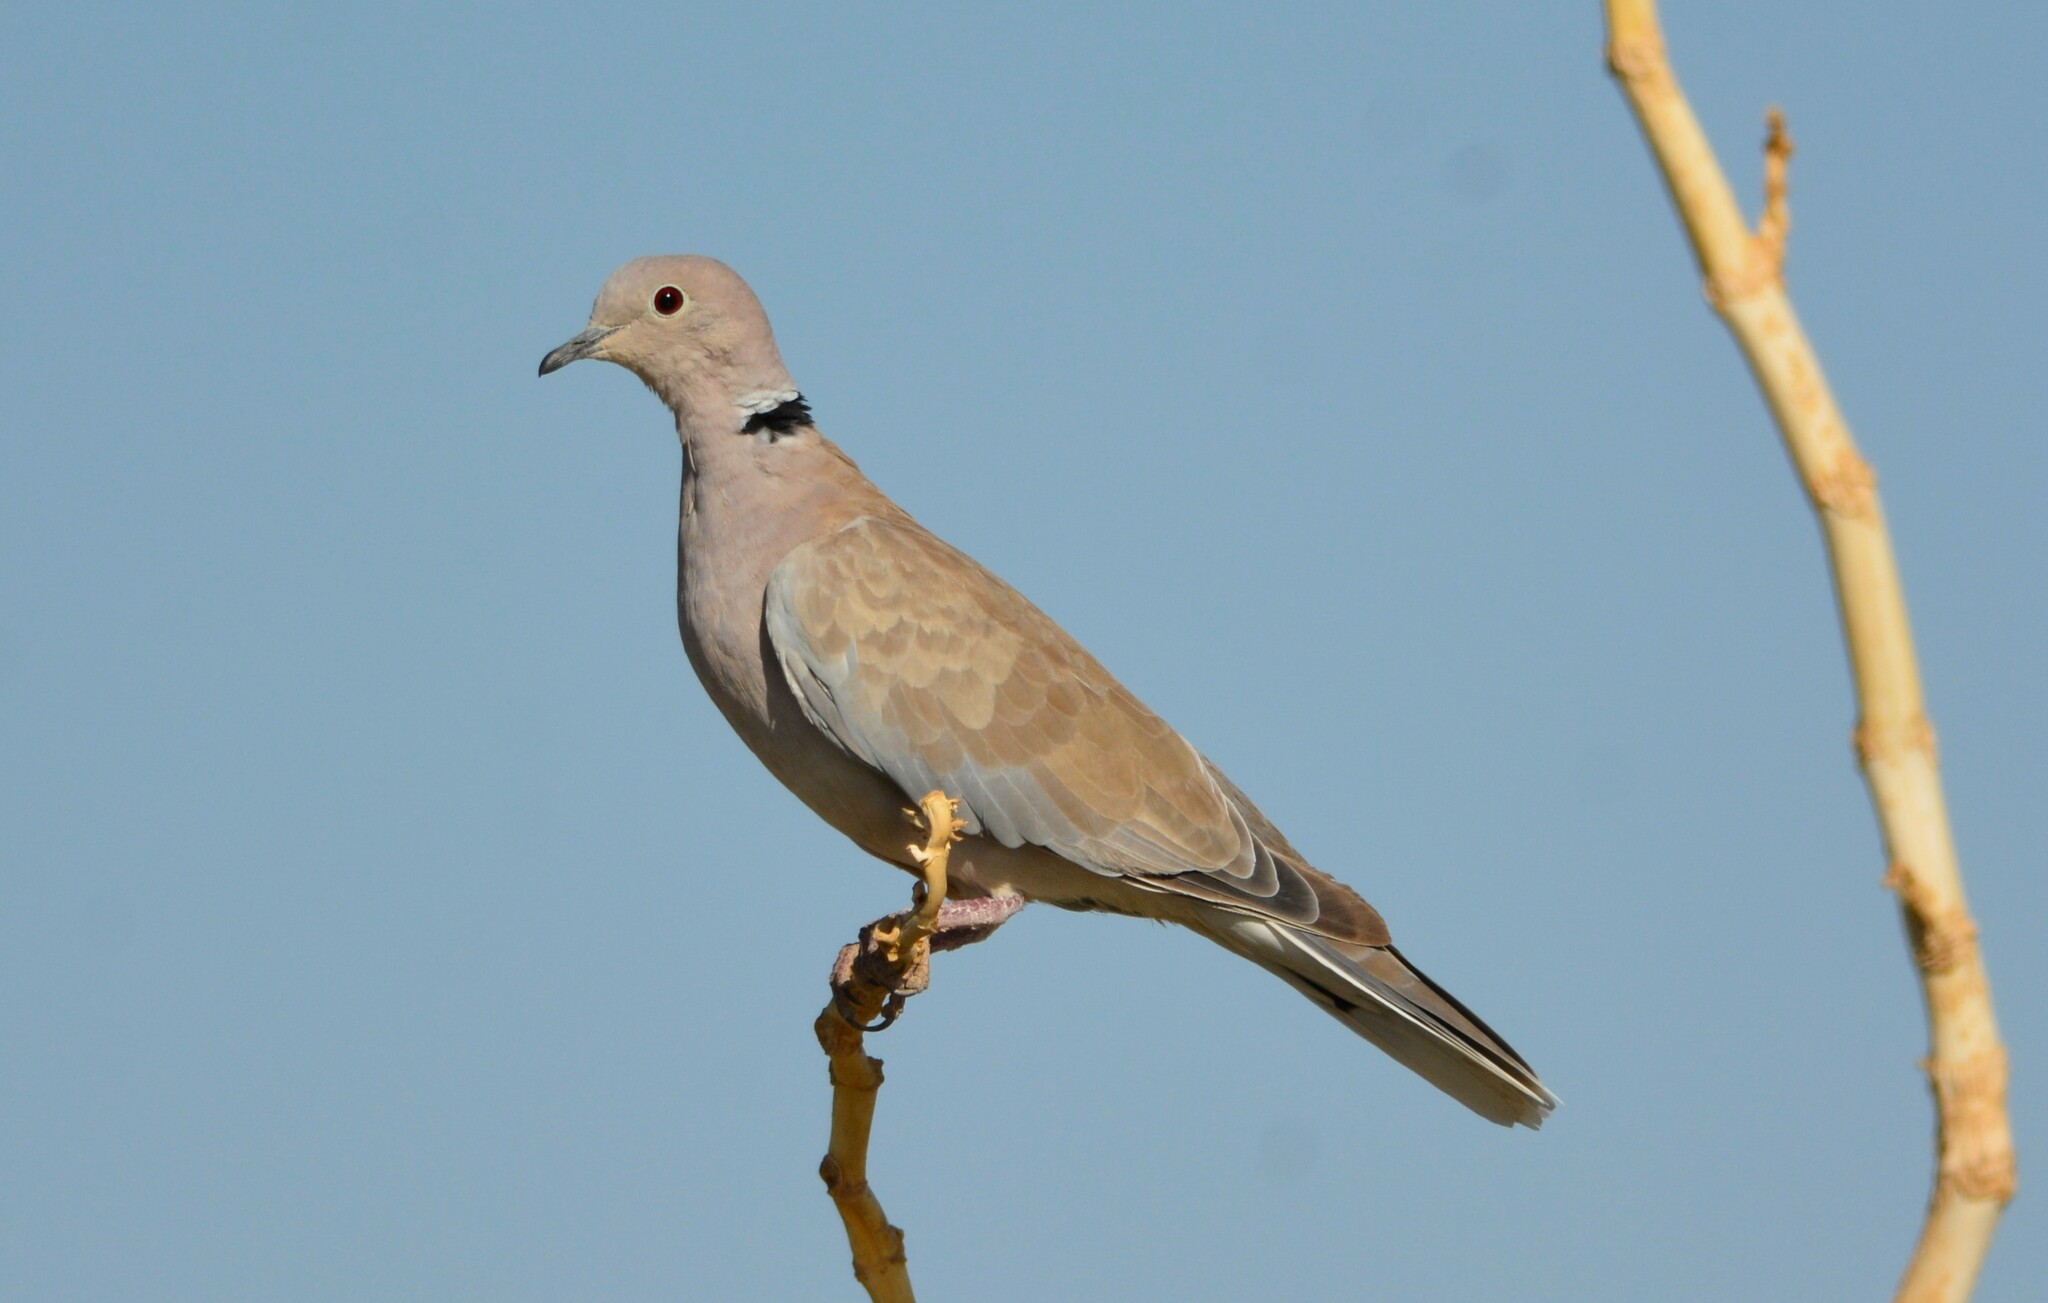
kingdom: Animalia
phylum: Chordata
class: Aves
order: Columbiformes
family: Columbidae
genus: Streptopelia
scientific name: Streptopelia roseogrisea
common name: African collared dove
